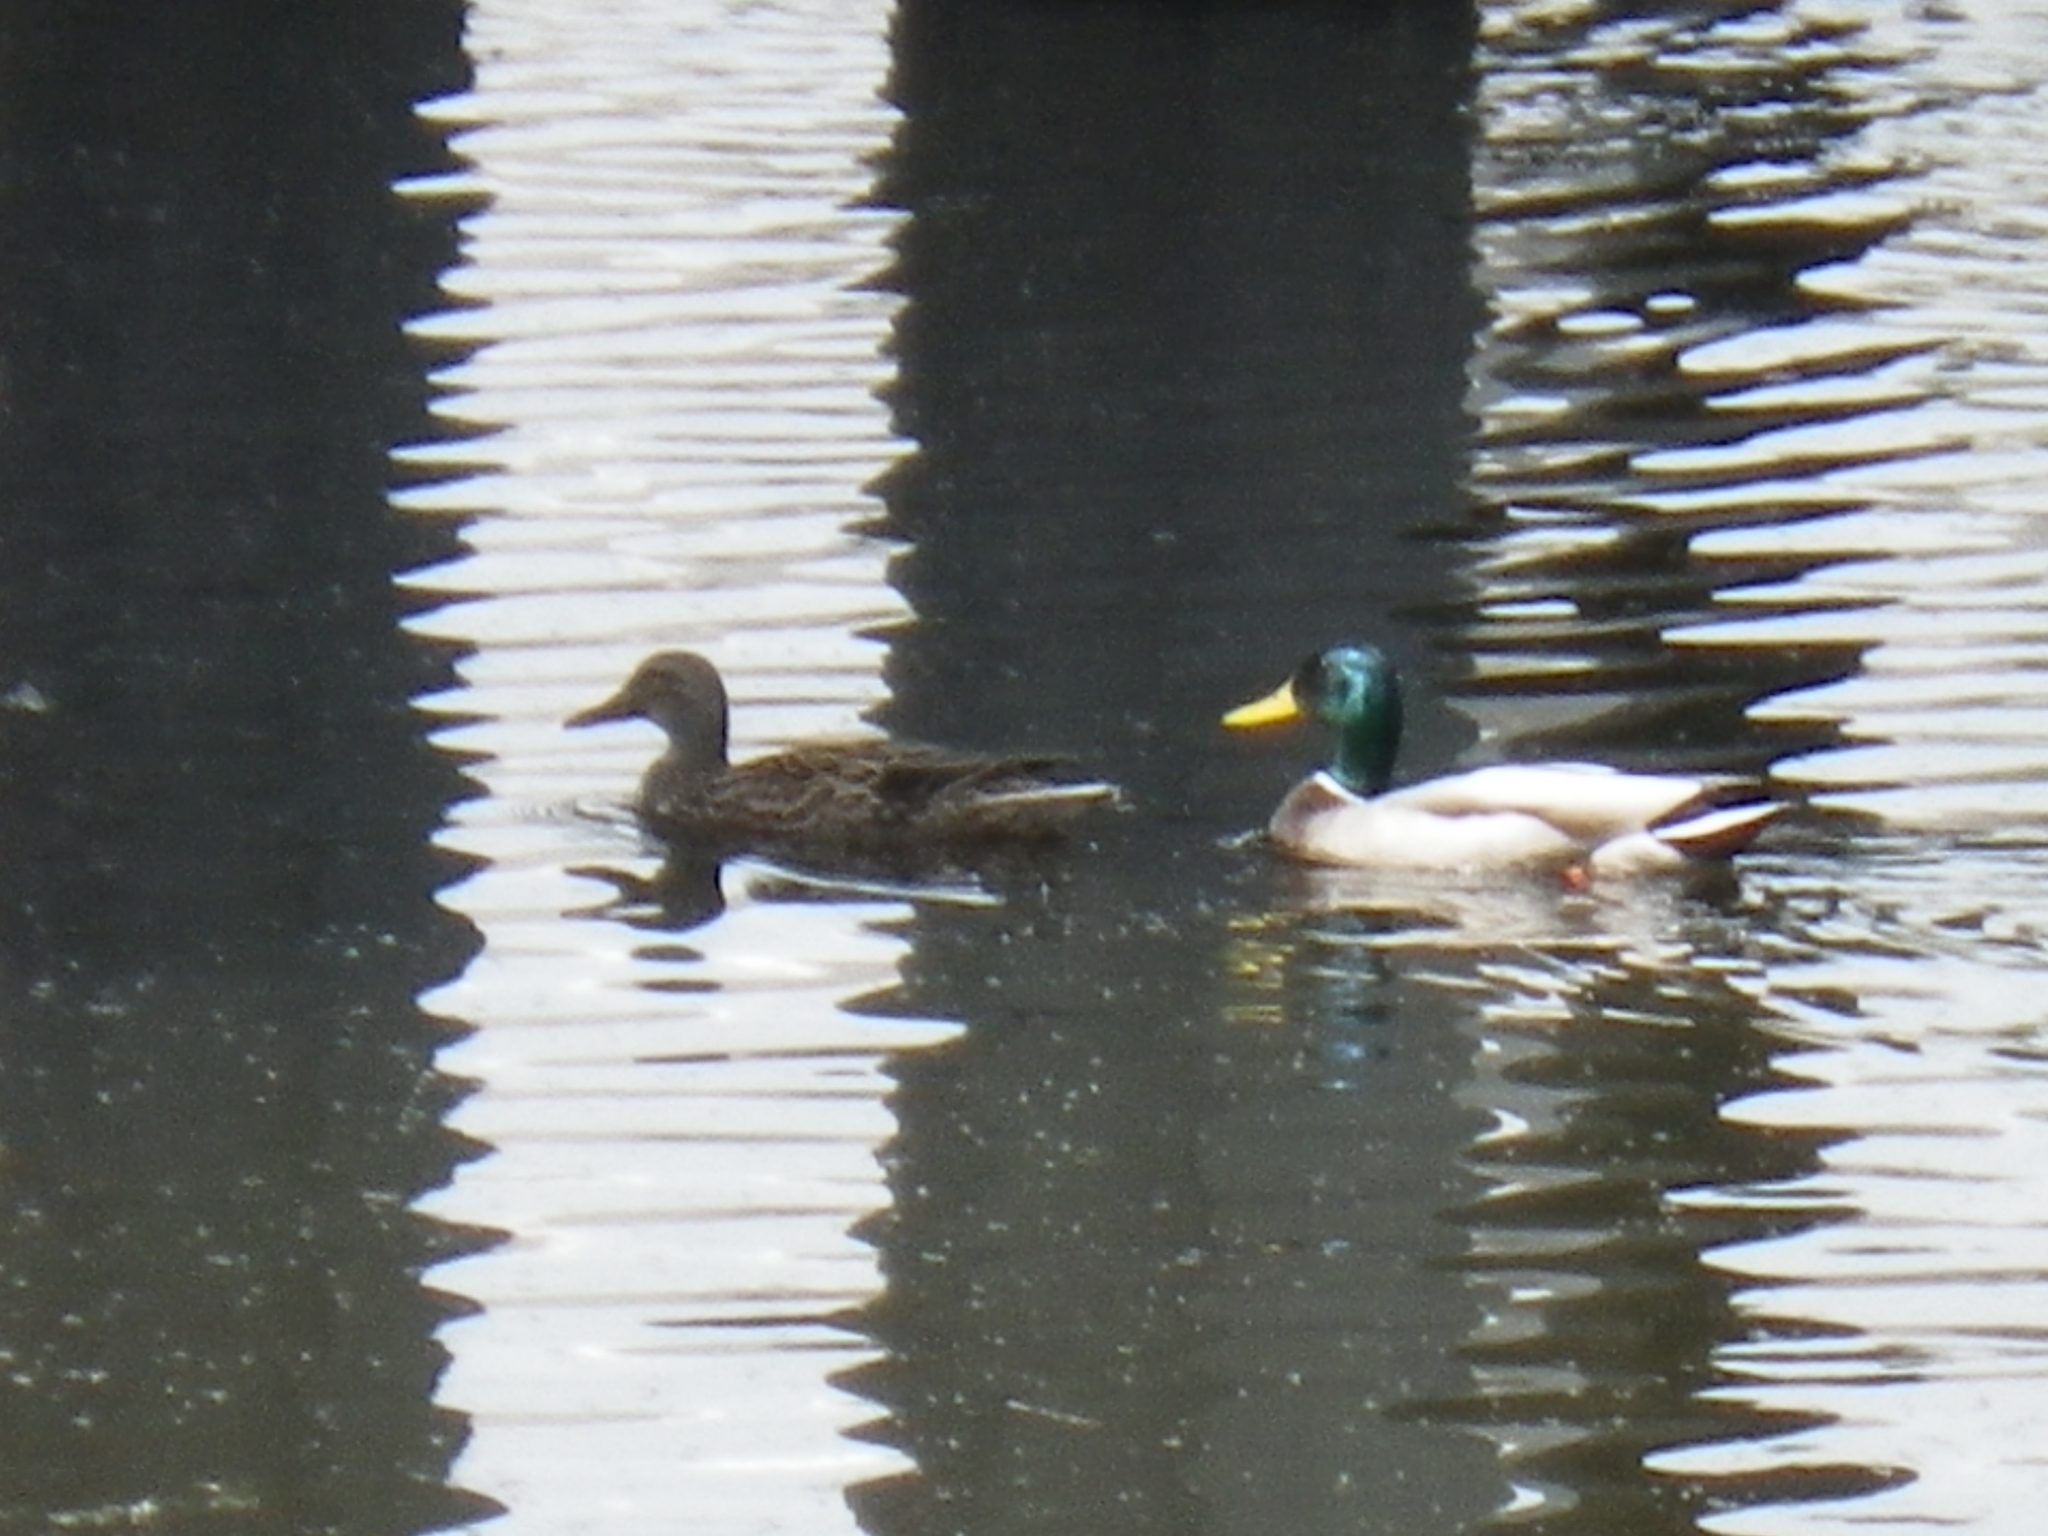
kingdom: Animalia
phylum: Chordata
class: Aves
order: Anseriformes
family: Anatidae
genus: Anas
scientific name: Anas platyrhynchos
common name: Mallard
